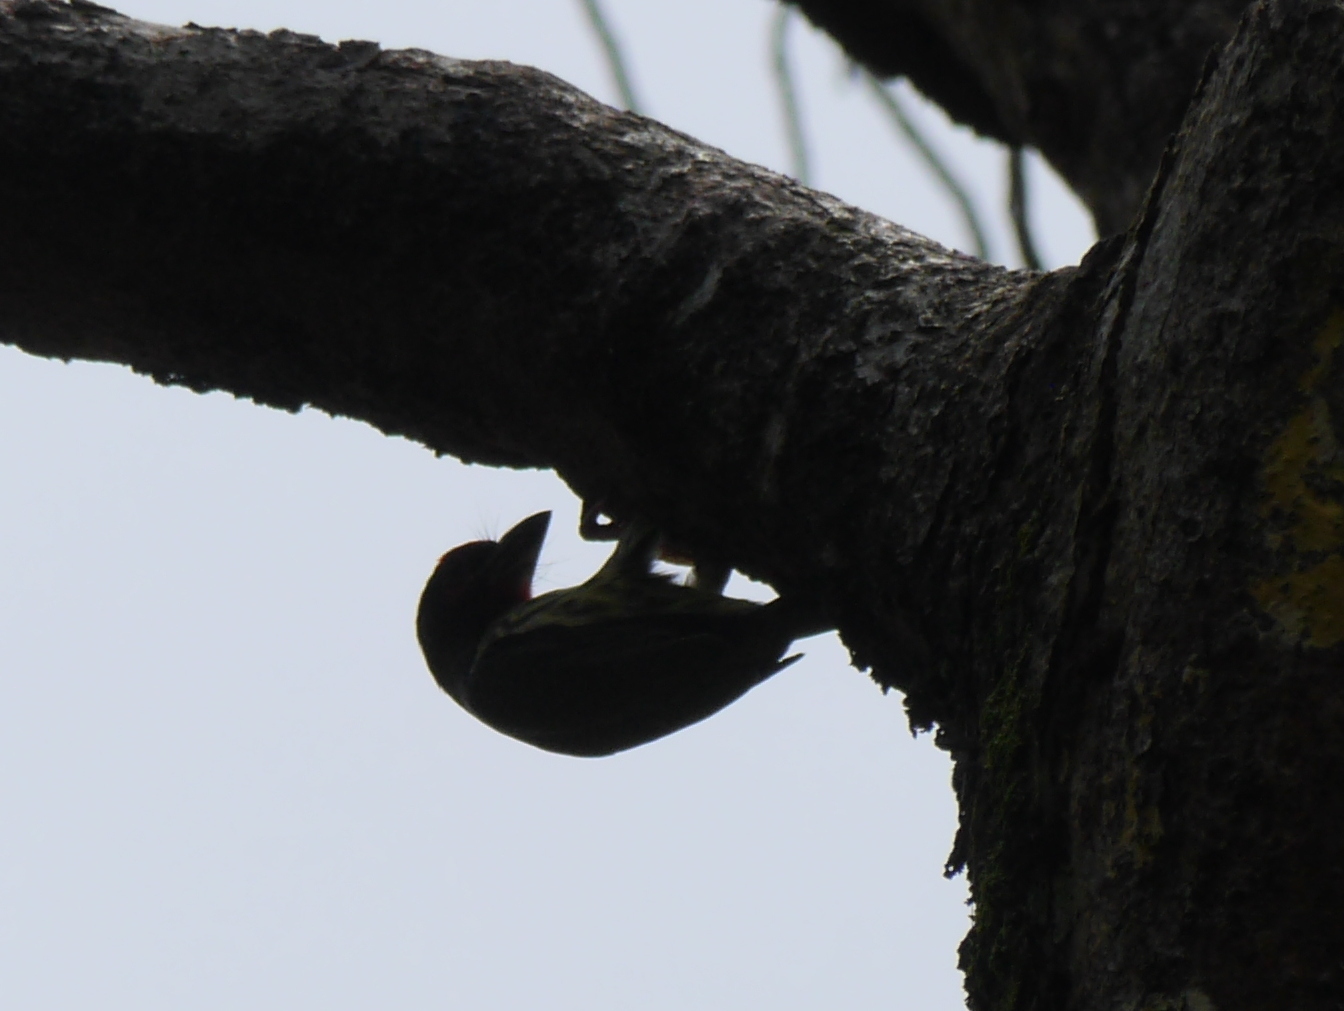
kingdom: Animalia
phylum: Chordata
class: Aves
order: Piciformes
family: Megalaimidae
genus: Psilopogon
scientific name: Psilopogon haemacephalus
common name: Coppersmith barbet
